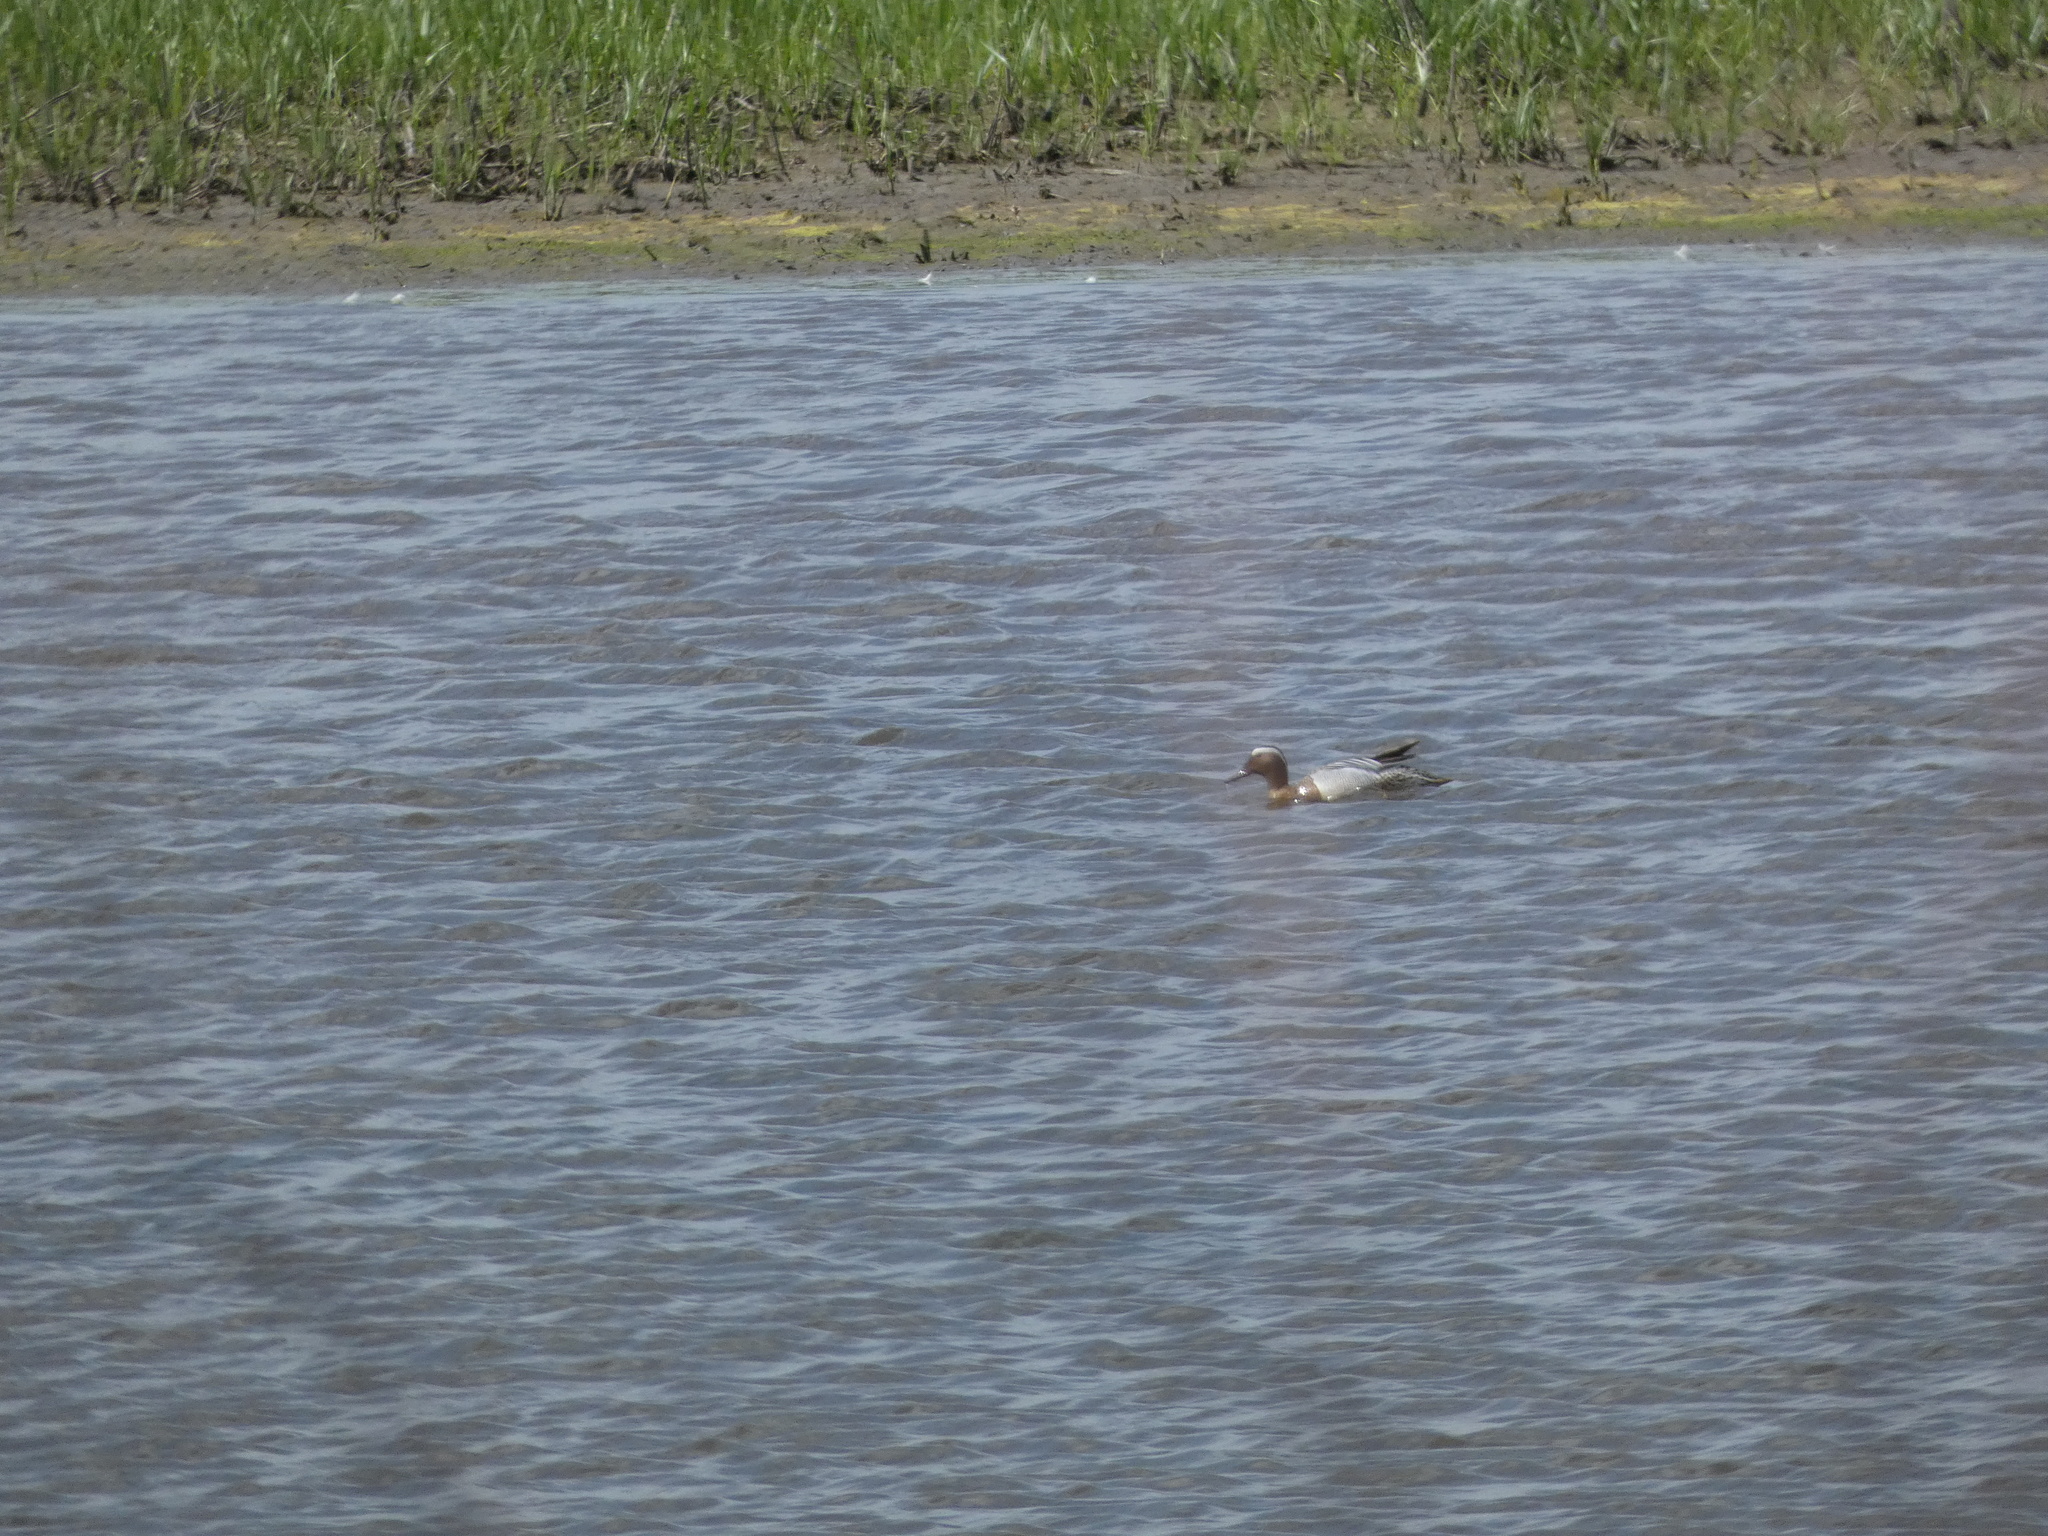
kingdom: Animalia
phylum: Chordata
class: Aves
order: Anseriformes
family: Anatidae
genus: Spatula
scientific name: Spatula querquedula
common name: Garganey
